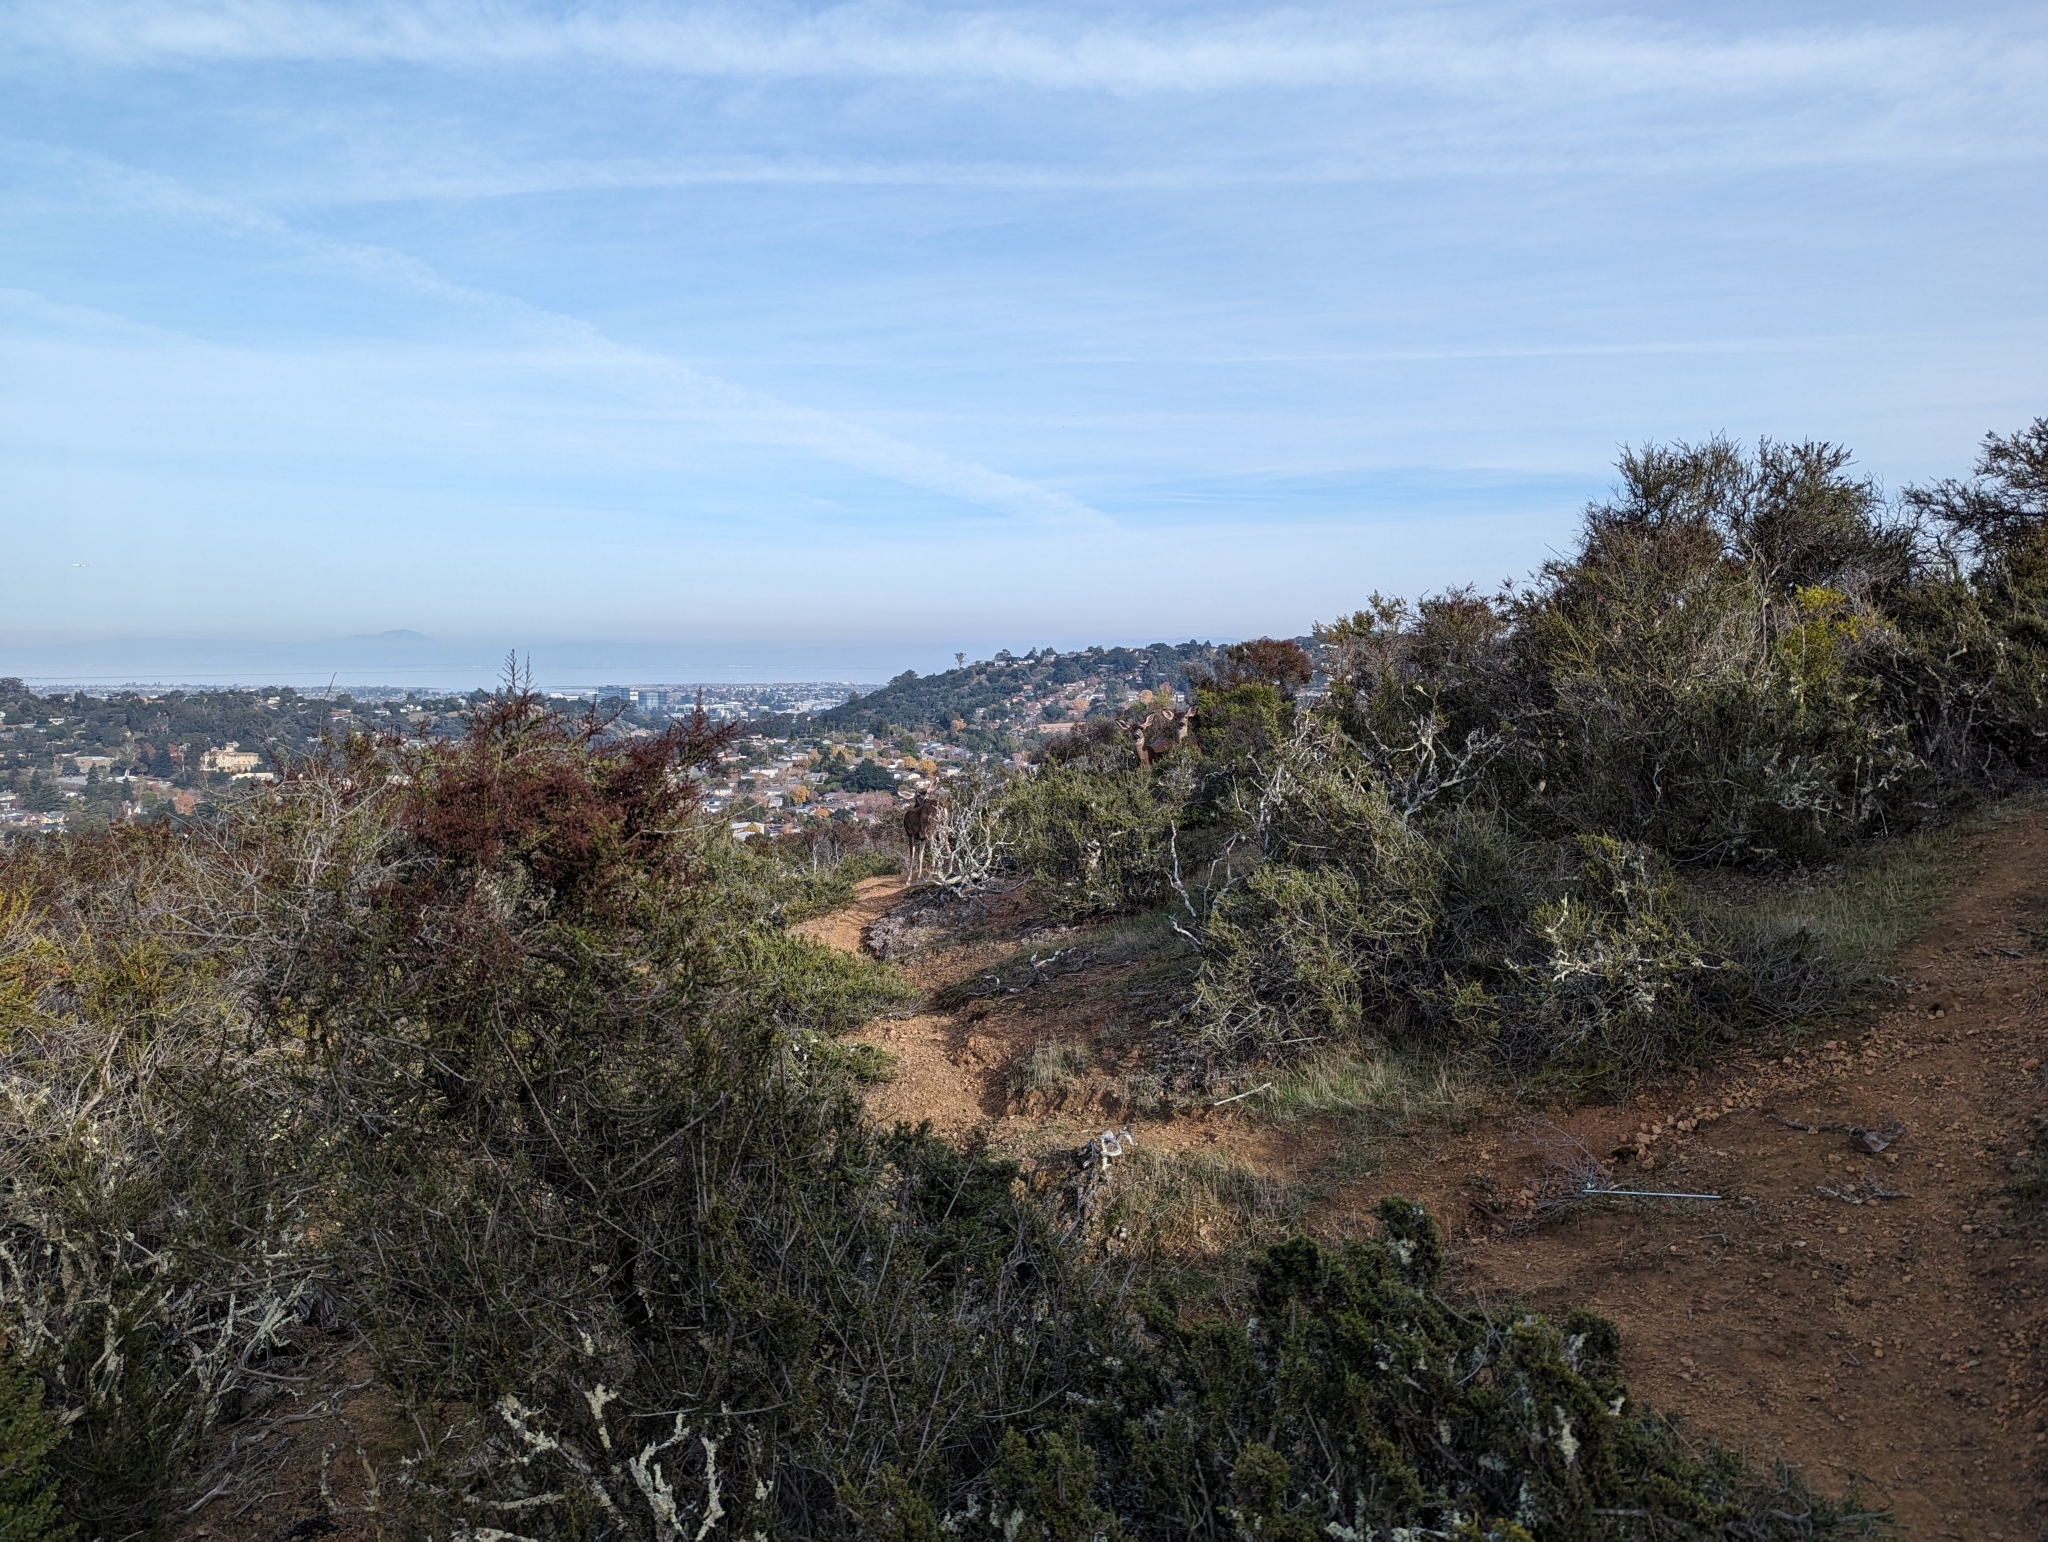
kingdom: Animalia
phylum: Chordata
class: Mammalia
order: Artiodactyla
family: Cervidae
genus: Odocoileus
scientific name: Odocoileus hemionus
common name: Mule deer
